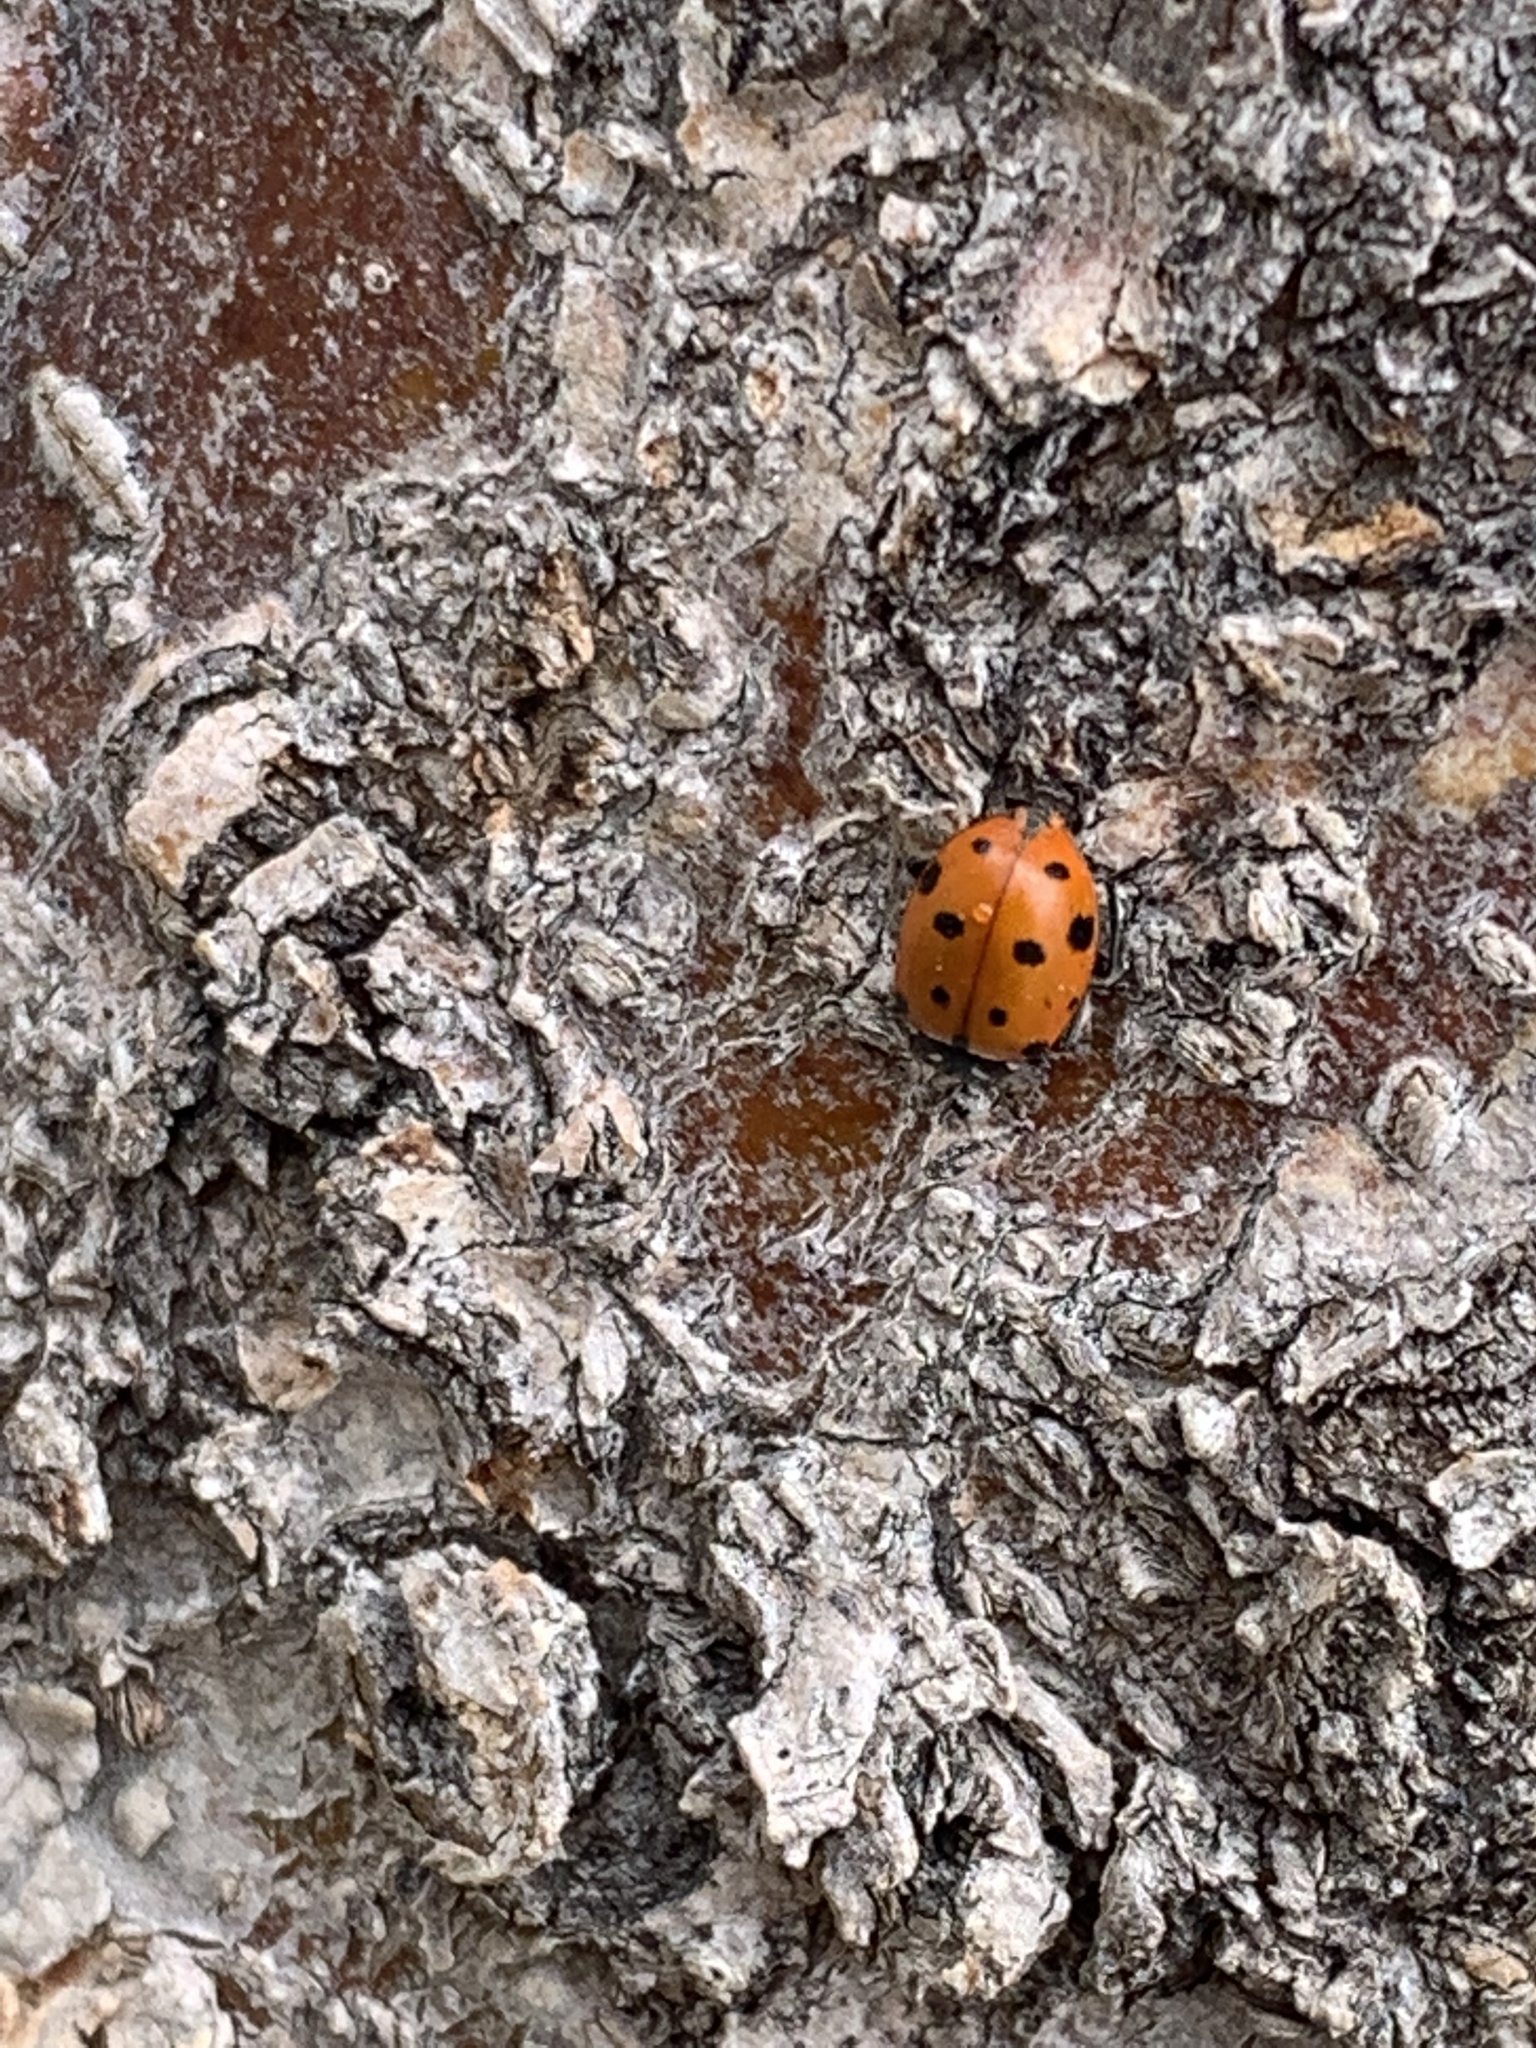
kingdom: Animalia
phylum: Arthropoda
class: Insecta
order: Coleoptera
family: Coccinellidae
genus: Hippodamia
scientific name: Hippodamia convergens
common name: Convergent lady beetle
